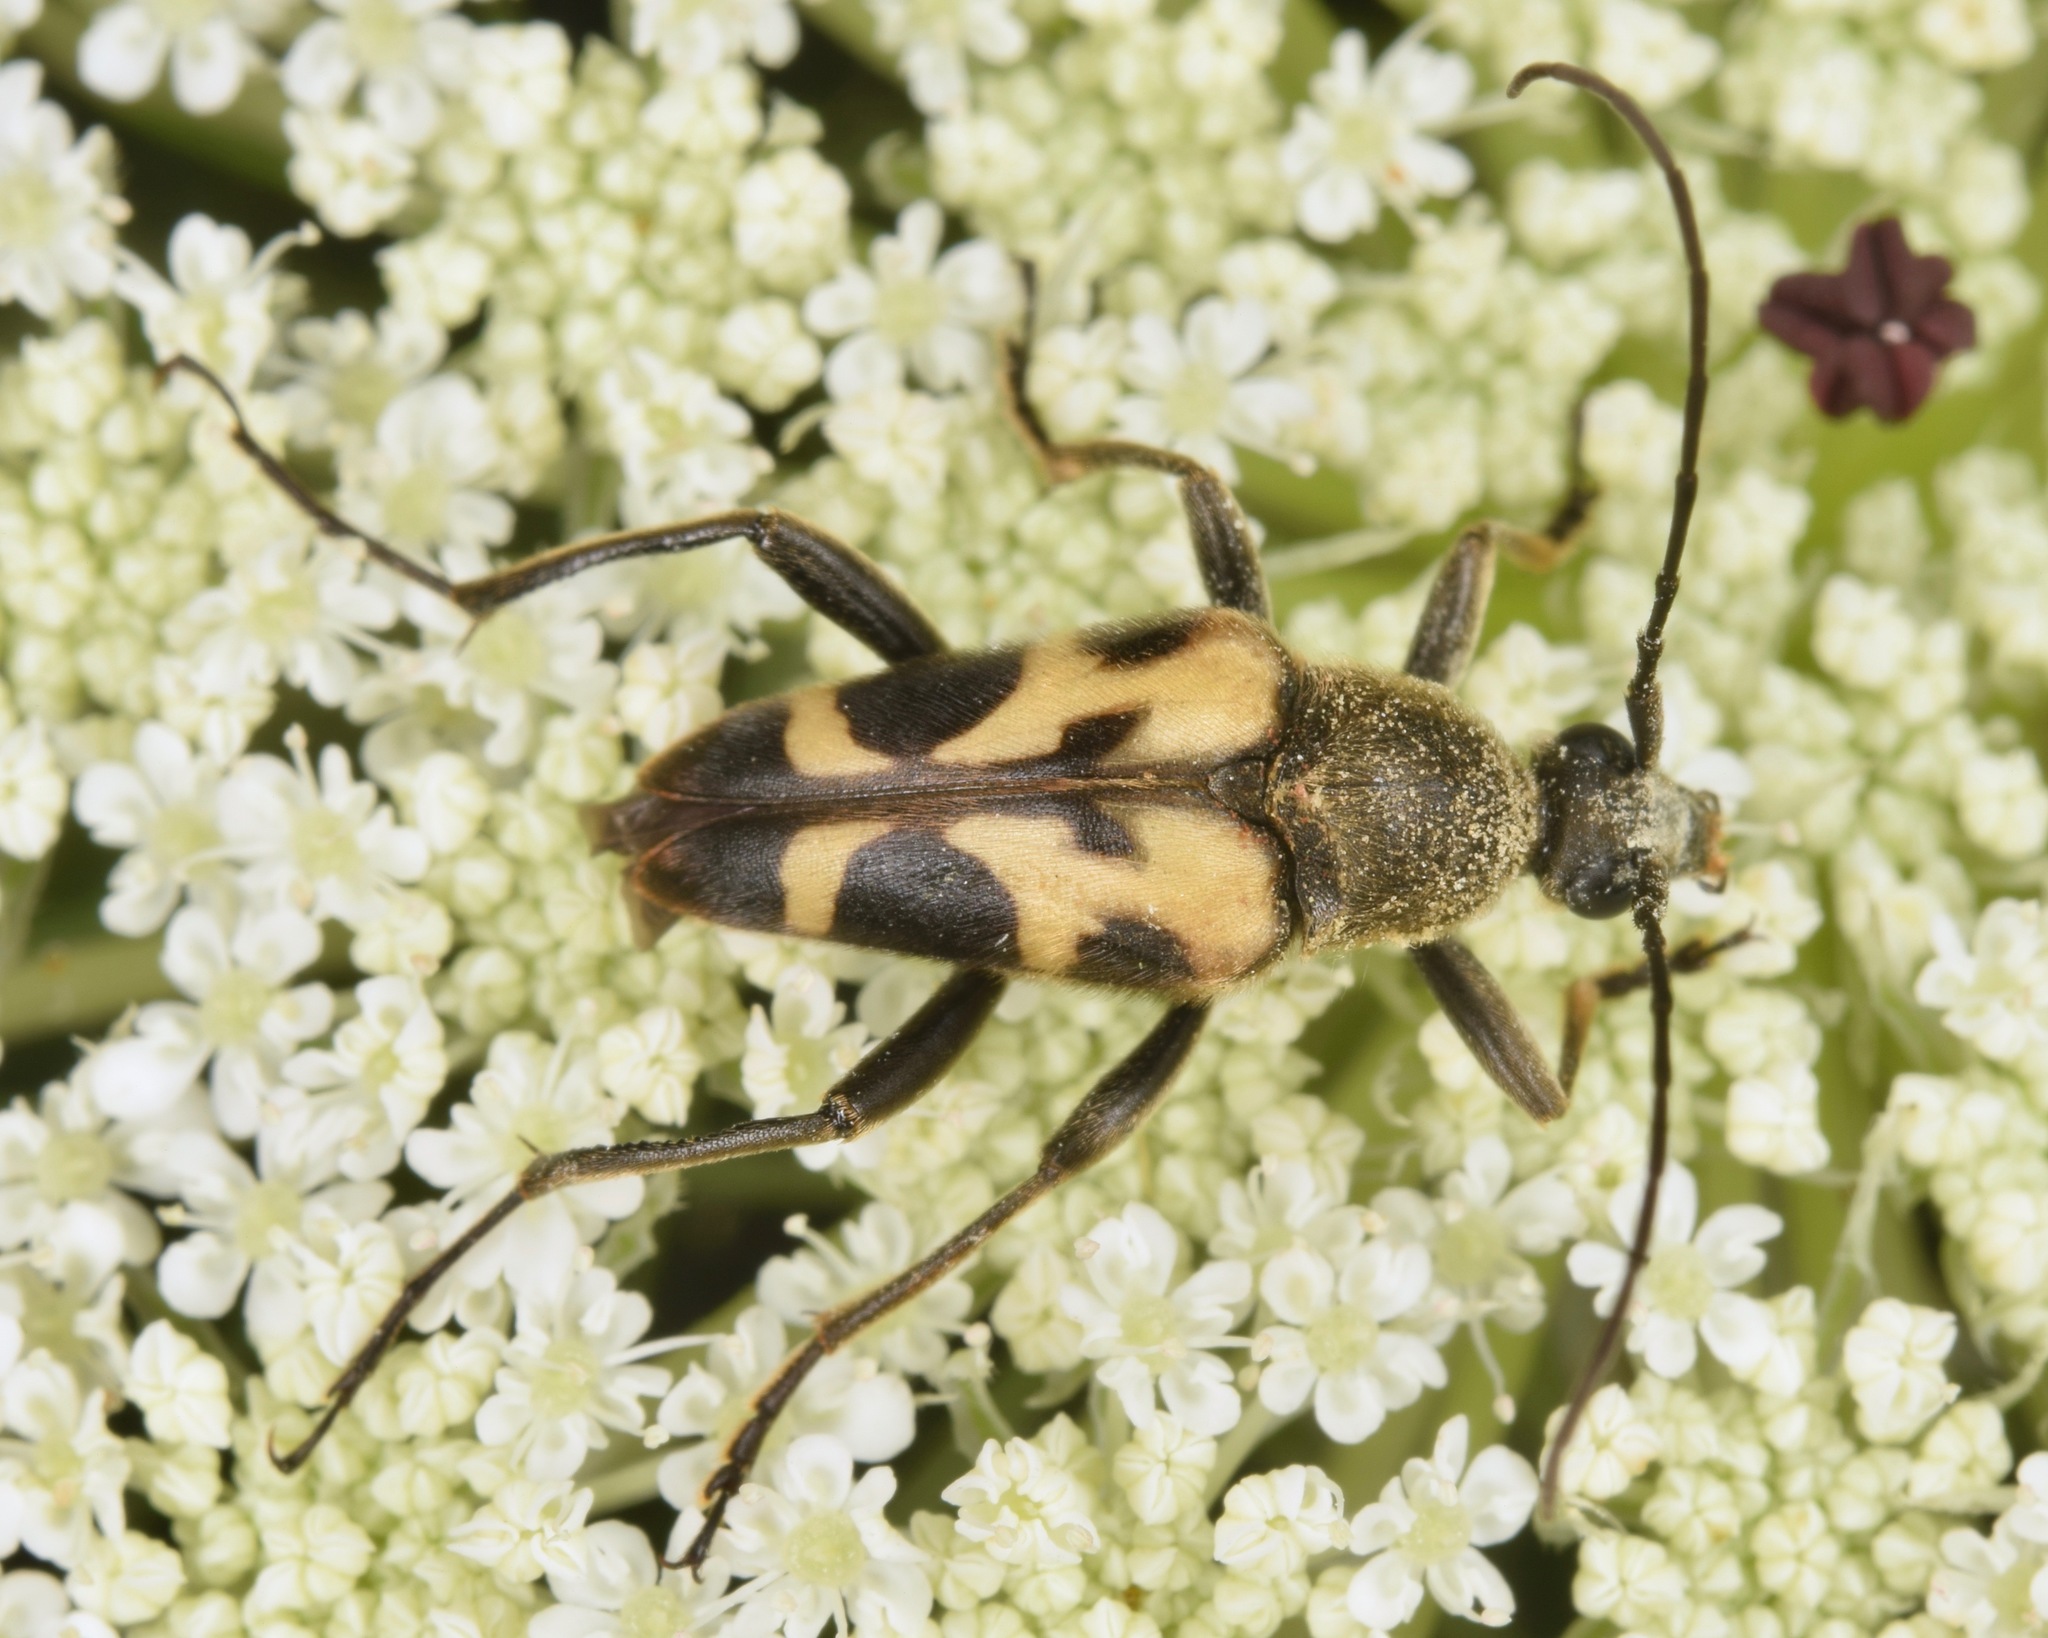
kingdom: Animalia
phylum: Arthropoda
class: Insecta
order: Coleoptera
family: Cerambycidae
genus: Judolia
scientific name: Judolia cordifera
